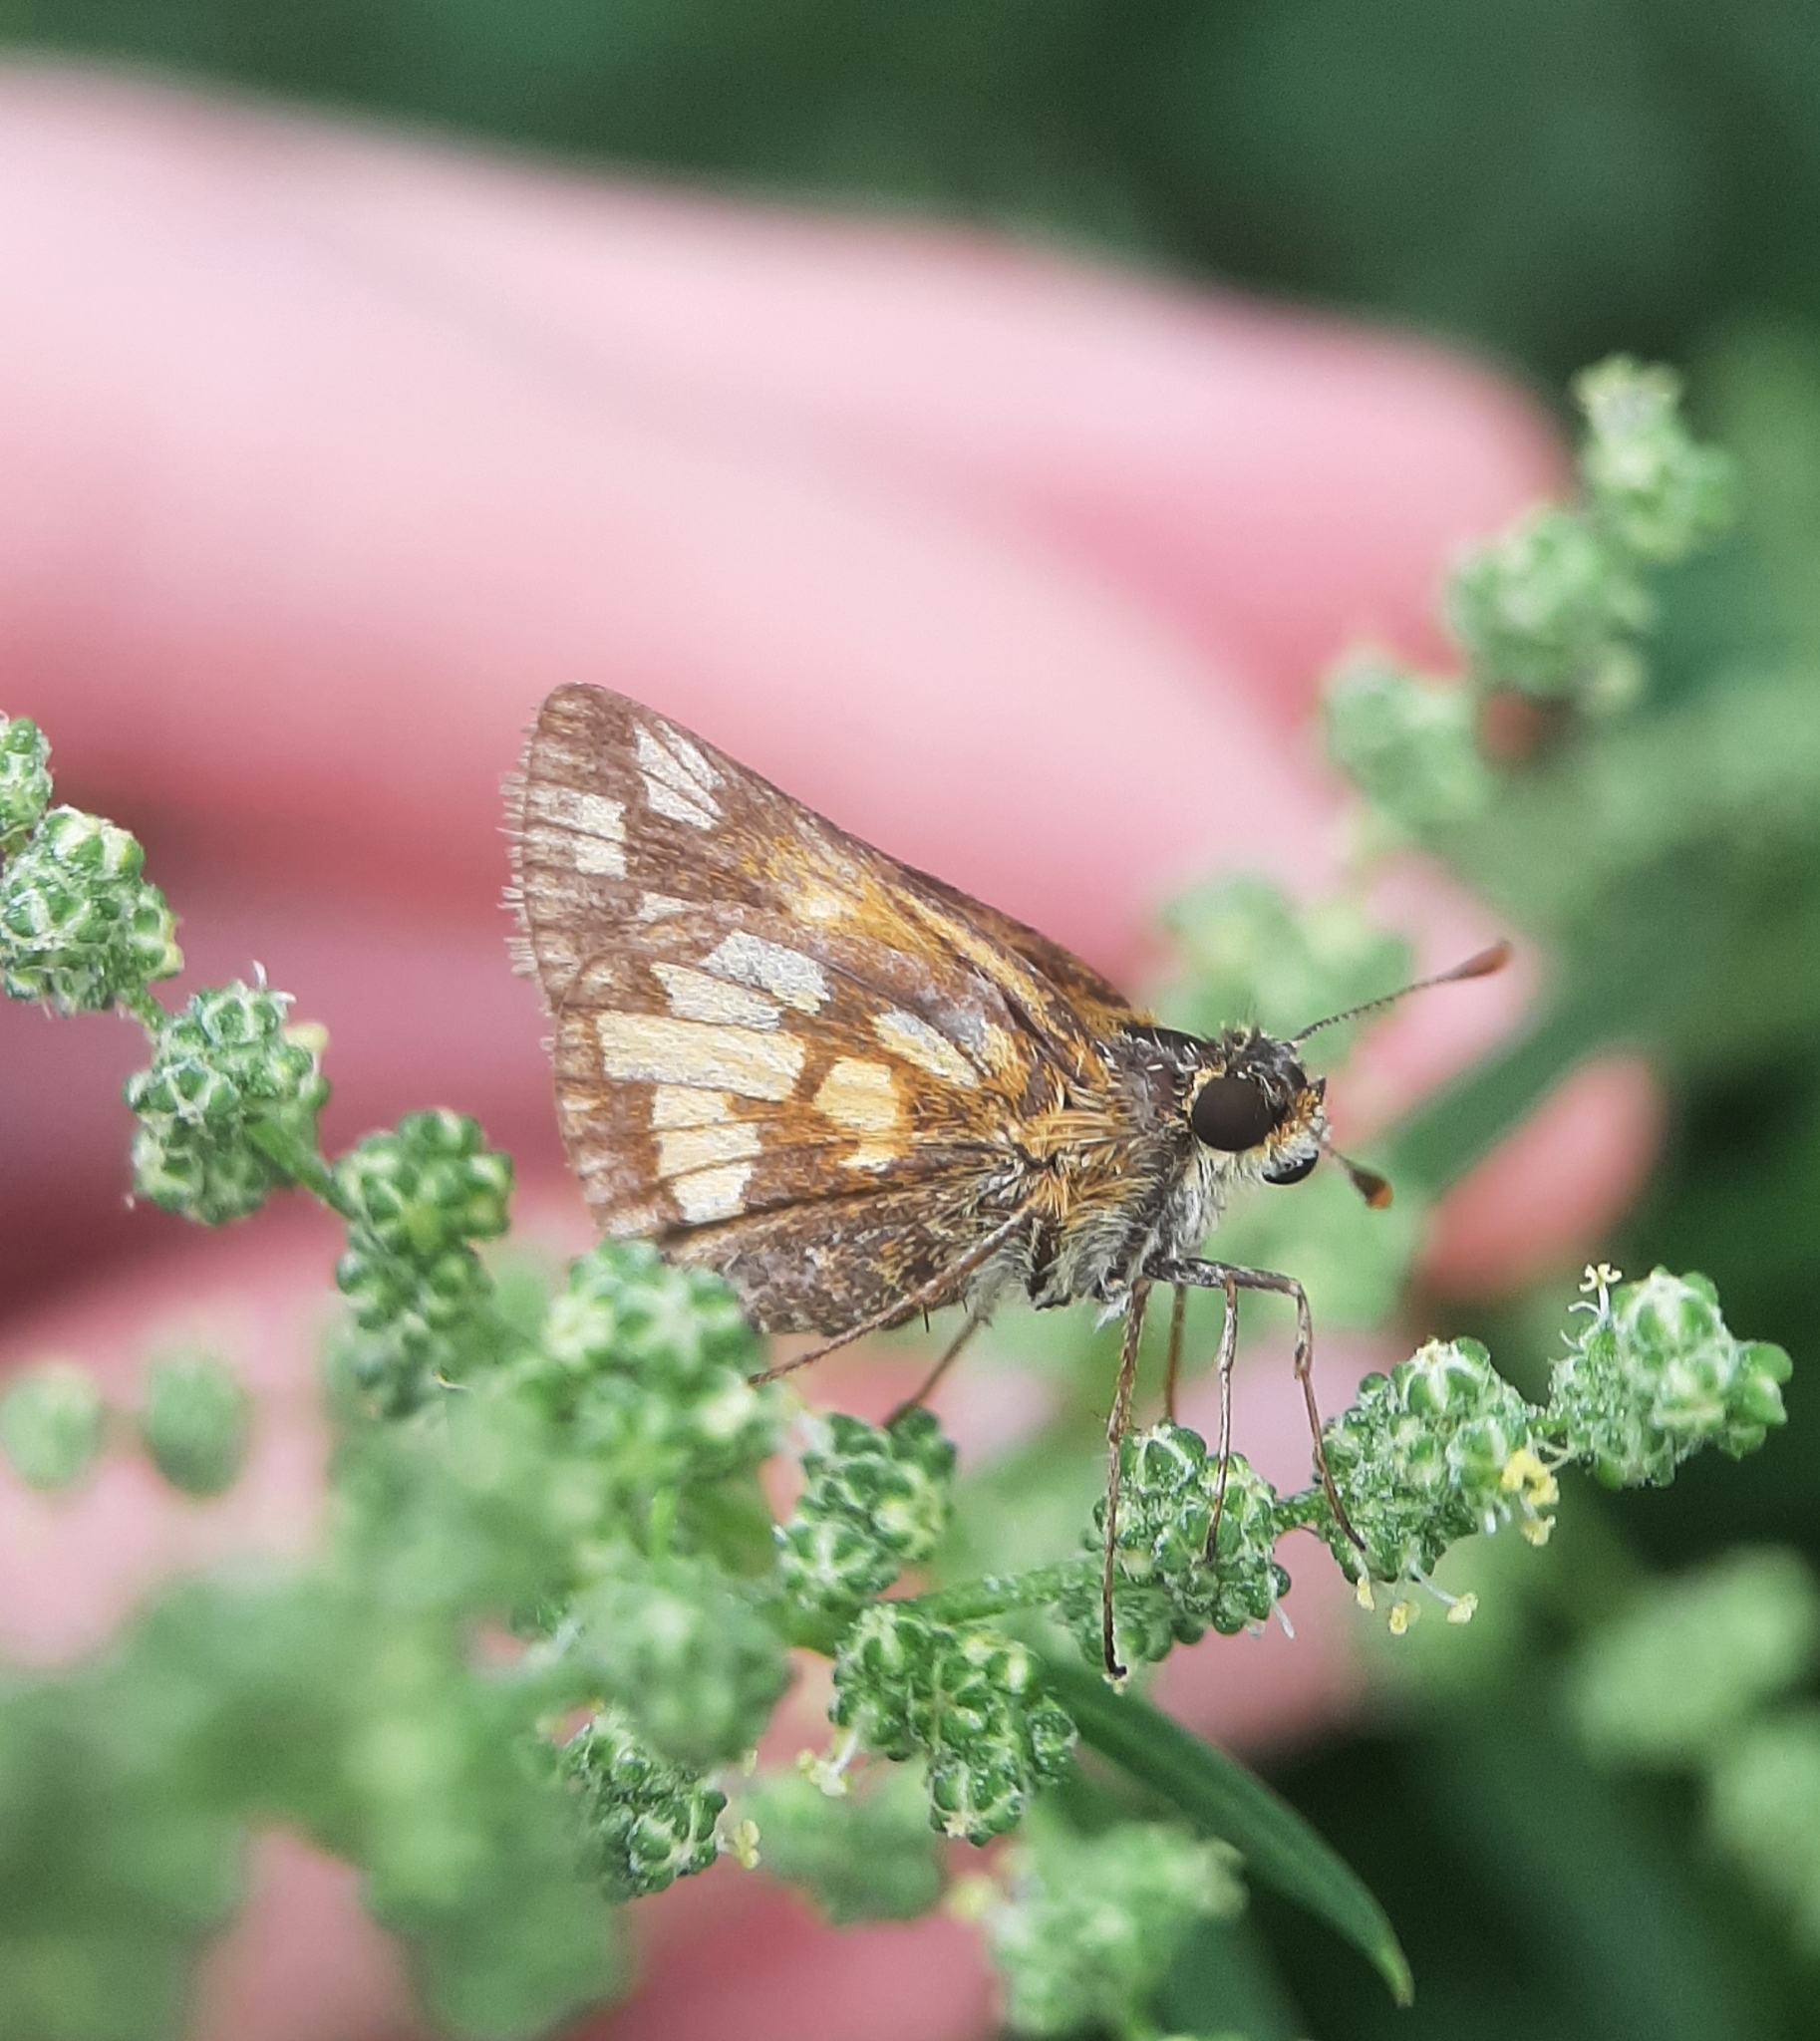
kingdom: Animalia
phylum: Arthropoda
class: Insecta
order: Lepidoptera
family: Hesperiidae
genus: Polites
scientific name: Polites coras
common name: Peck's skipper
